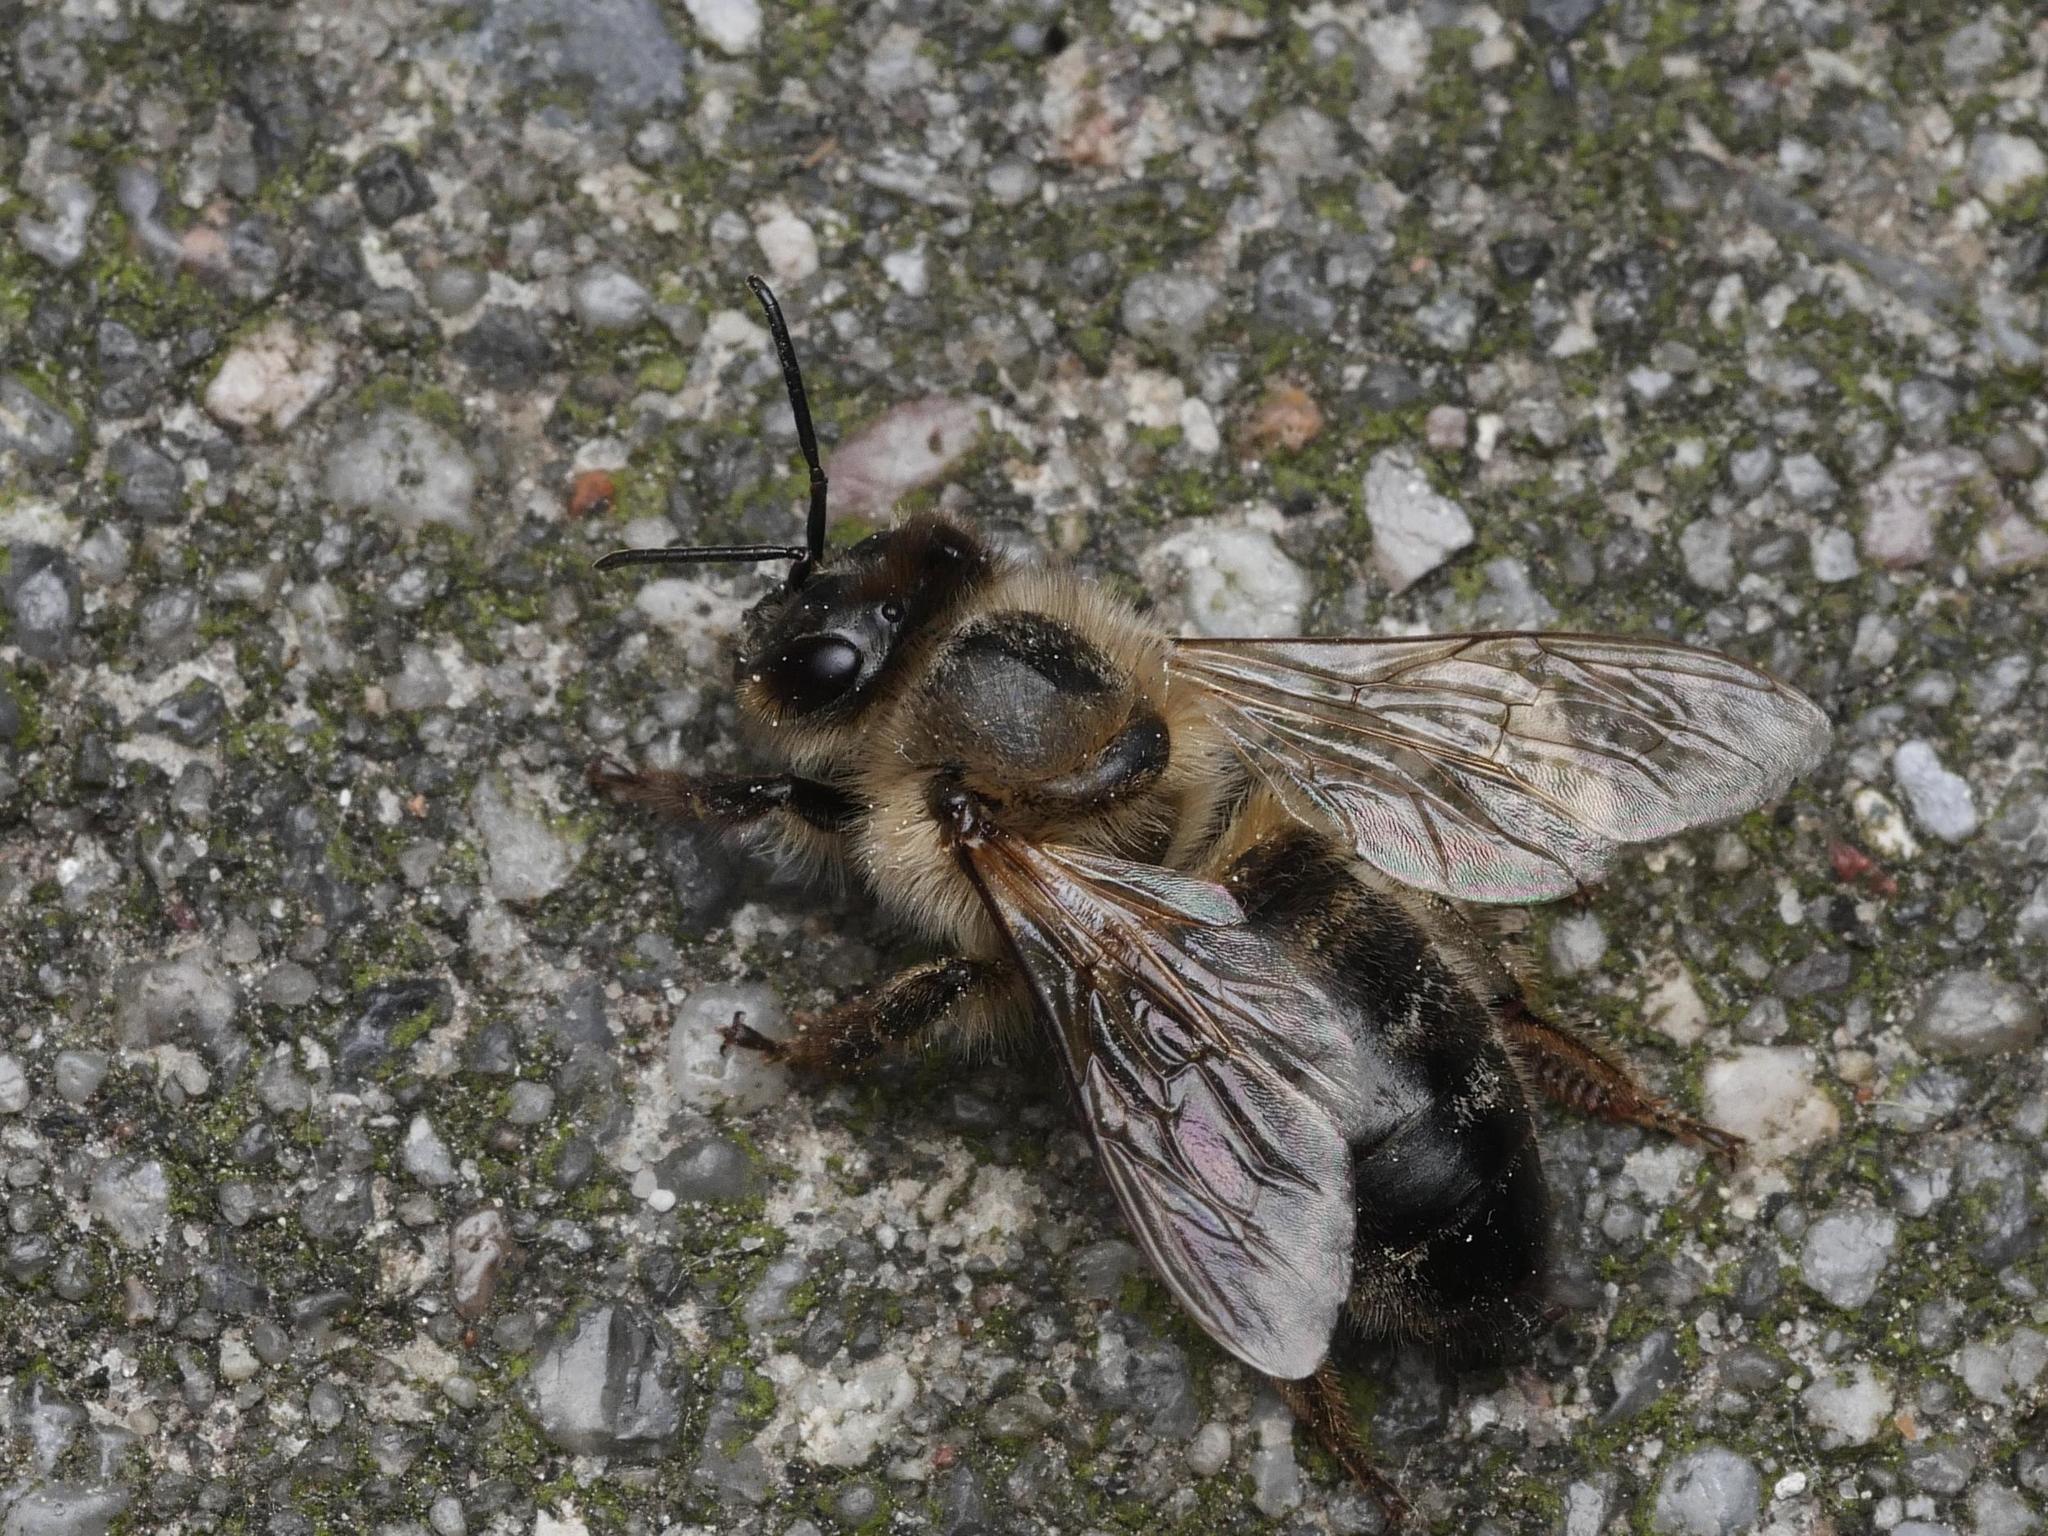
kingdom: Animalia
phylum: Arthropoda
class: Insecta
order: Hymenoptera
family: Apidae
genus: Apis
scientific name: Apis mellifera
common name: Honey bee
